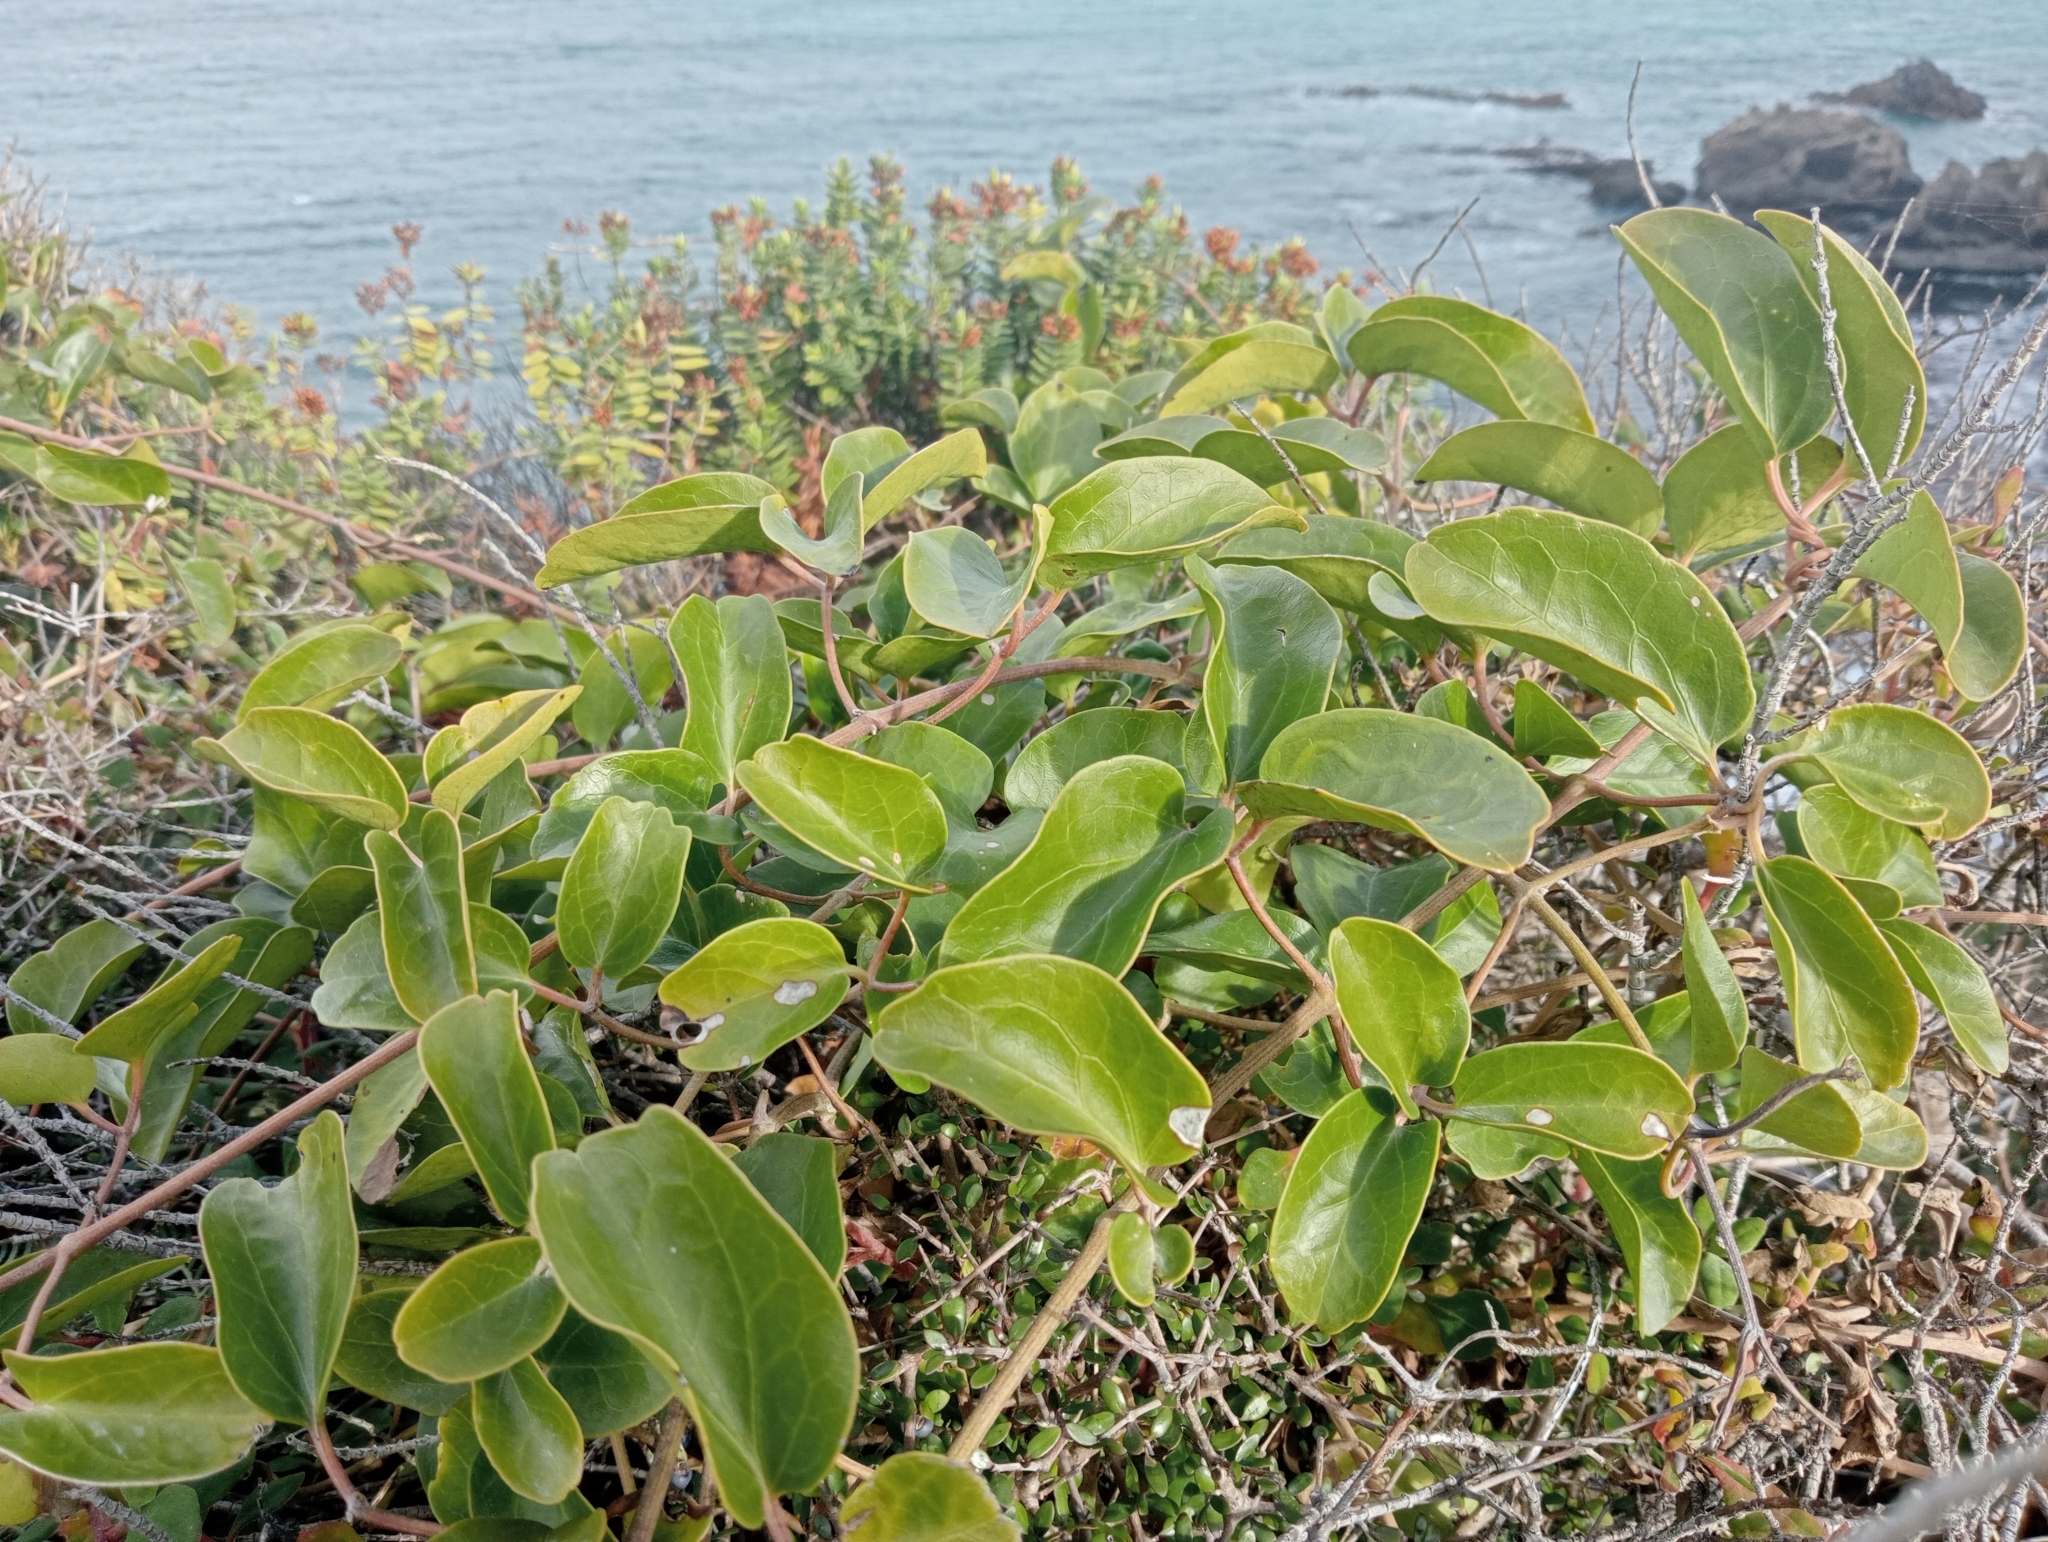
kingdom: Plantae
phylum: Tracheophyta
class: Magnoliopsida
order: Ranunculales
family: Ranunculaceae
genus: Clematis
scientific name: Clematis paniculata
